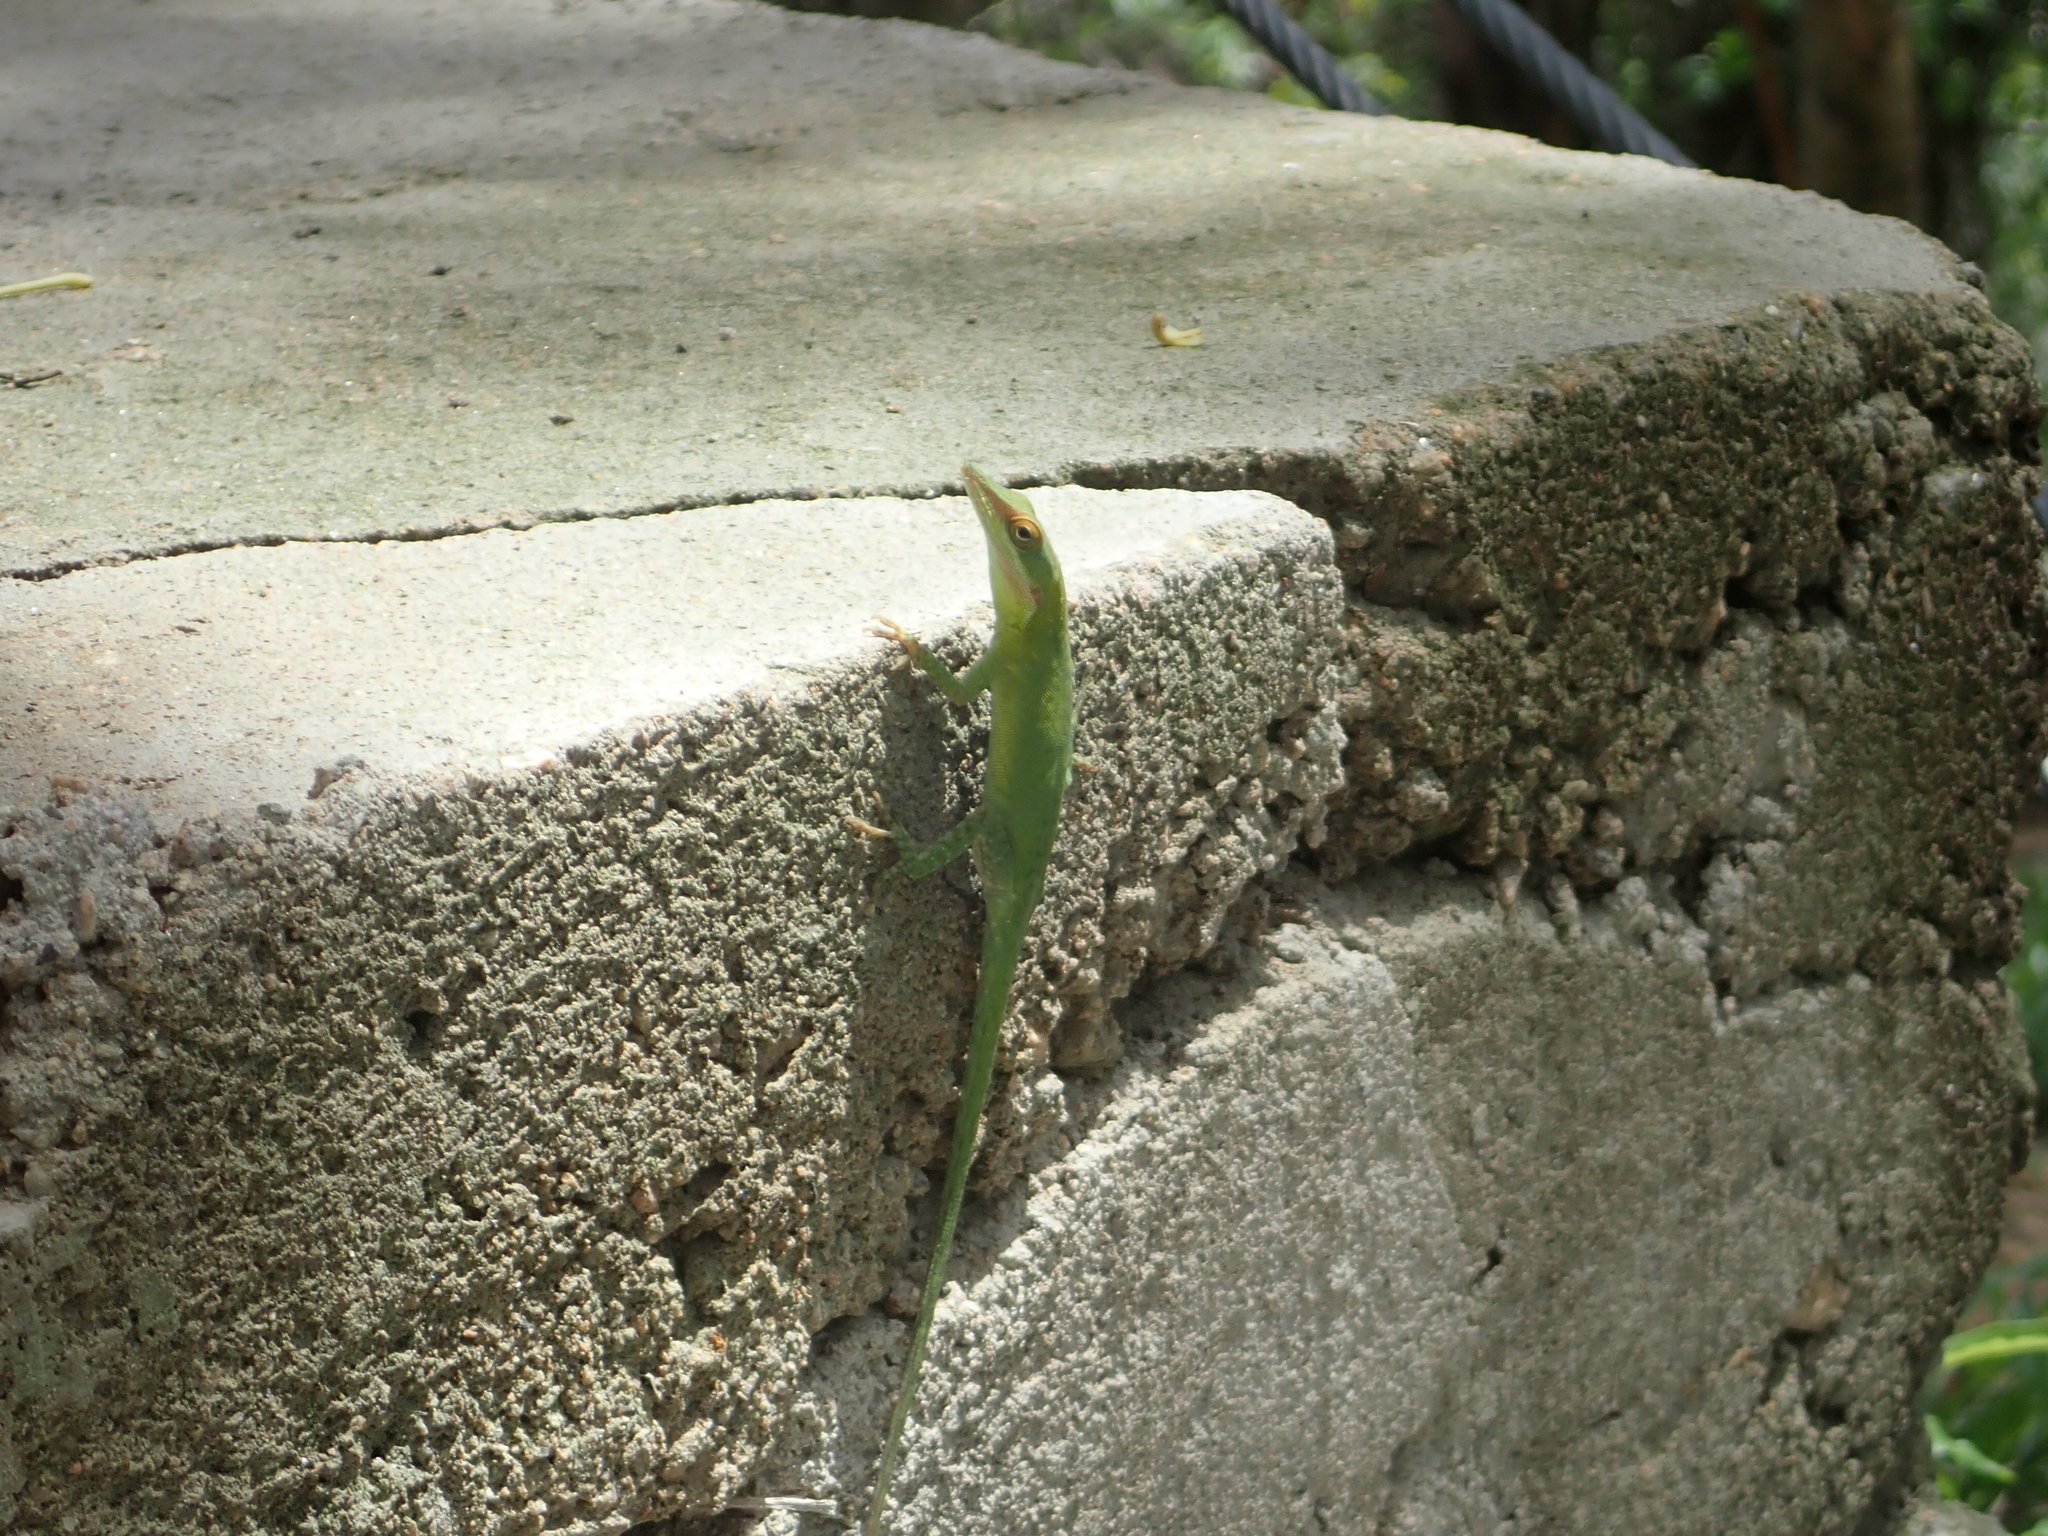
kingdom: Animalia
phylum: Chordata
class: Squamata
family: Dactyloidae
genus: Anolis
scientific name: Anolis allisoni
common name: Allison's anole
